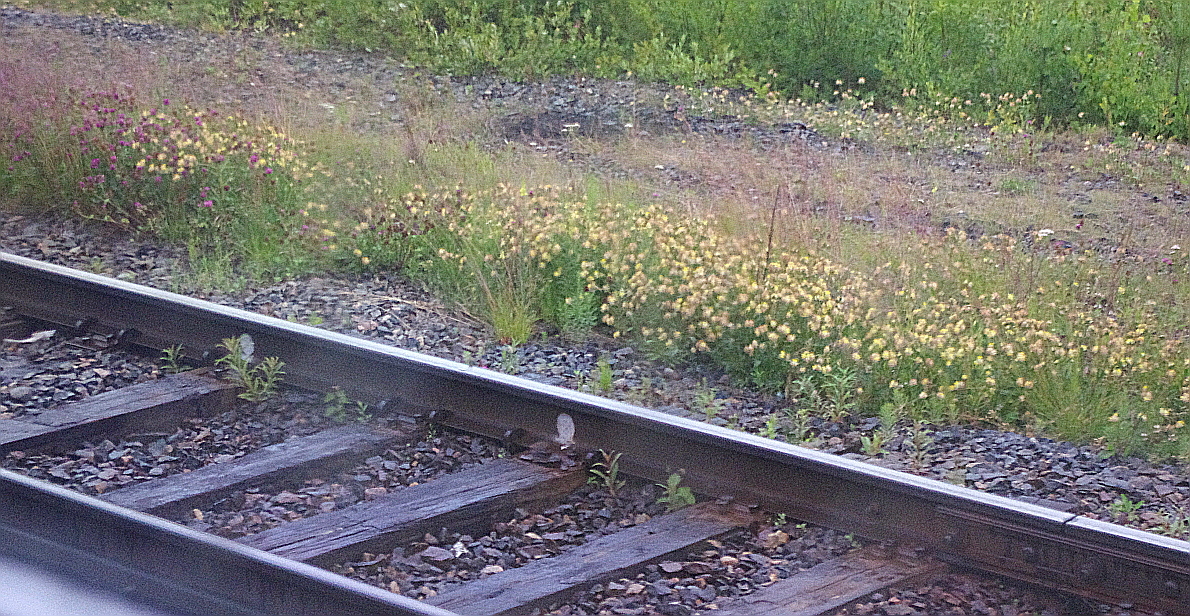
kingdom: Plantae
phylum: Tracheophyta
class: Magnoliopsida
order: Fabales
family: Fabaceae
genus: Anthyllis
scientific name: Anthyllis vulneraria
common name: Kidney vetch
